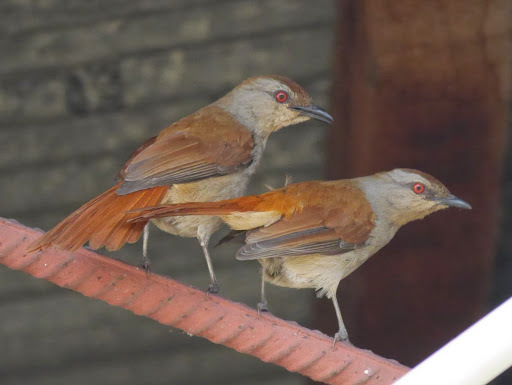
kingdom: Animalia
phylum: Chordata
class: Aves
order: Passeriformes
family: Muscicapidae
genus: Cichladusa
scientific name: Cichladusa ruficauda
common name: Rufous-tailed palm thrush
